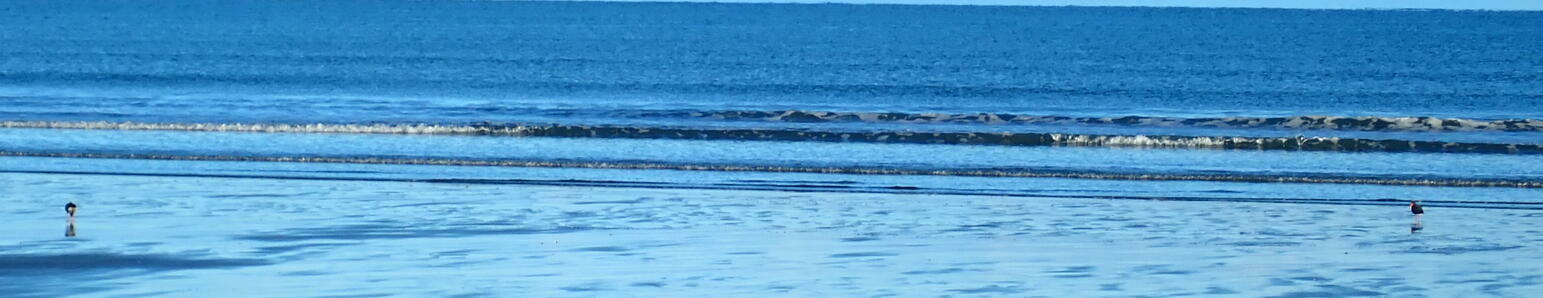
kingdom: Animalia
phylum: Chordata
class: Aves
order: Charadriiformes
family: Haematopodidae
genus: Haematopus
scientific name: Haematopus unicolor
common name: Variable oystercatcher
